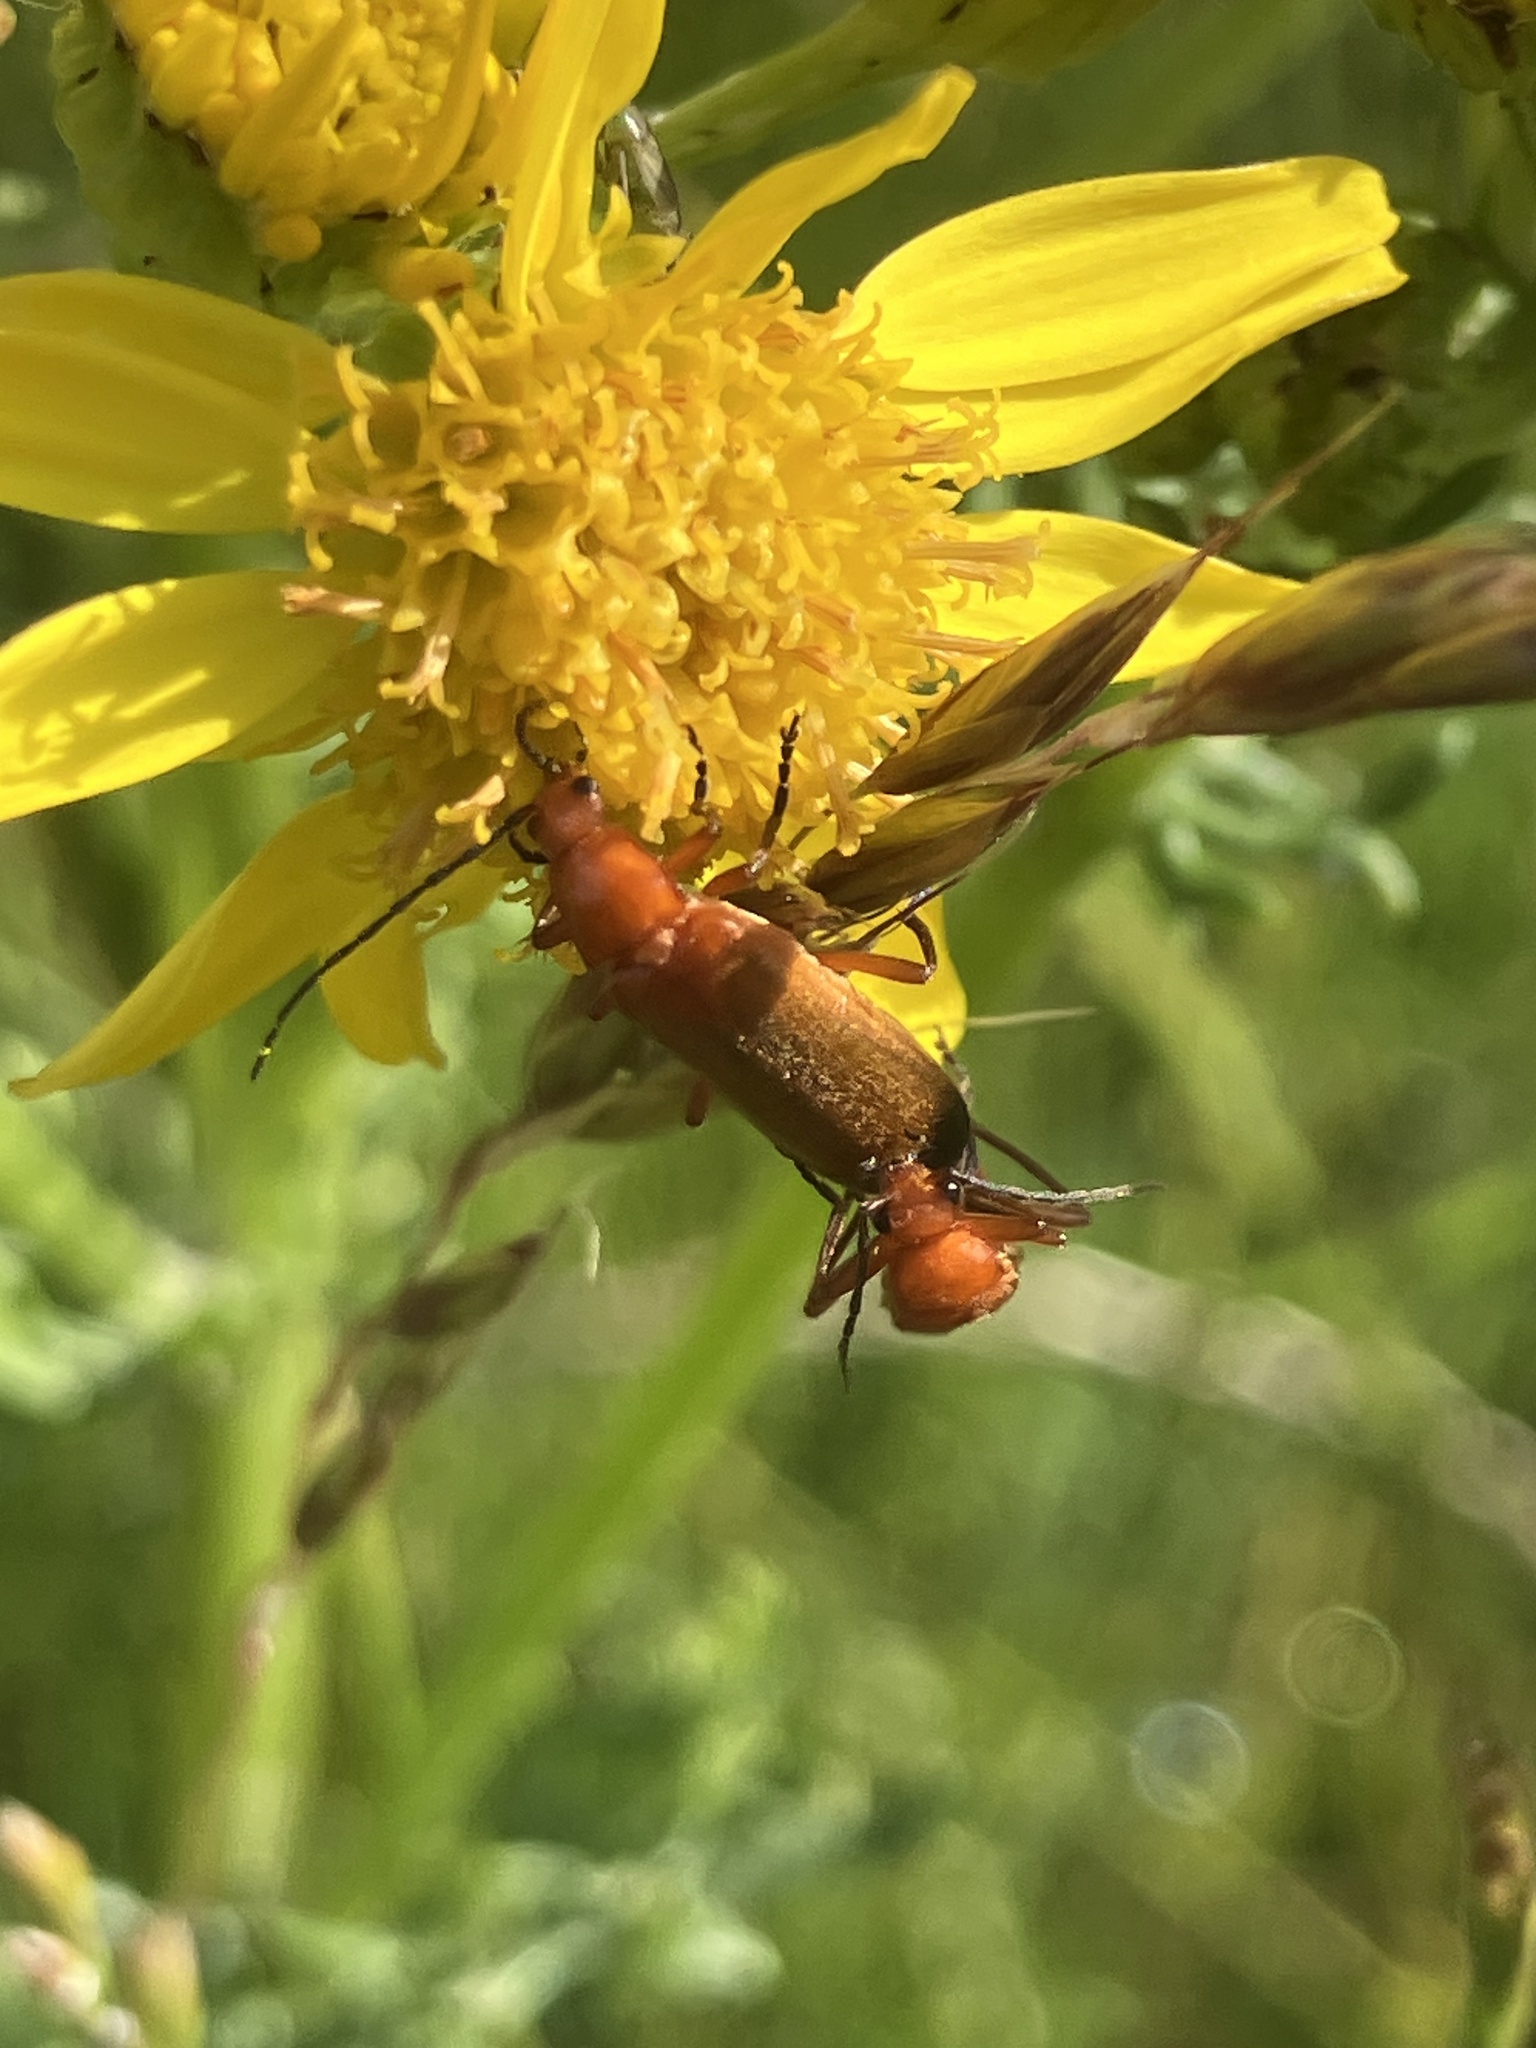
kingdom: Animalia
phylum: Arthropoda
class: Insecta
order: Coleoptera
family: Cantharidae
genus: Rhagonycha
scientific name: Rhagonycha fulva
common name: Common red soldier beetle
